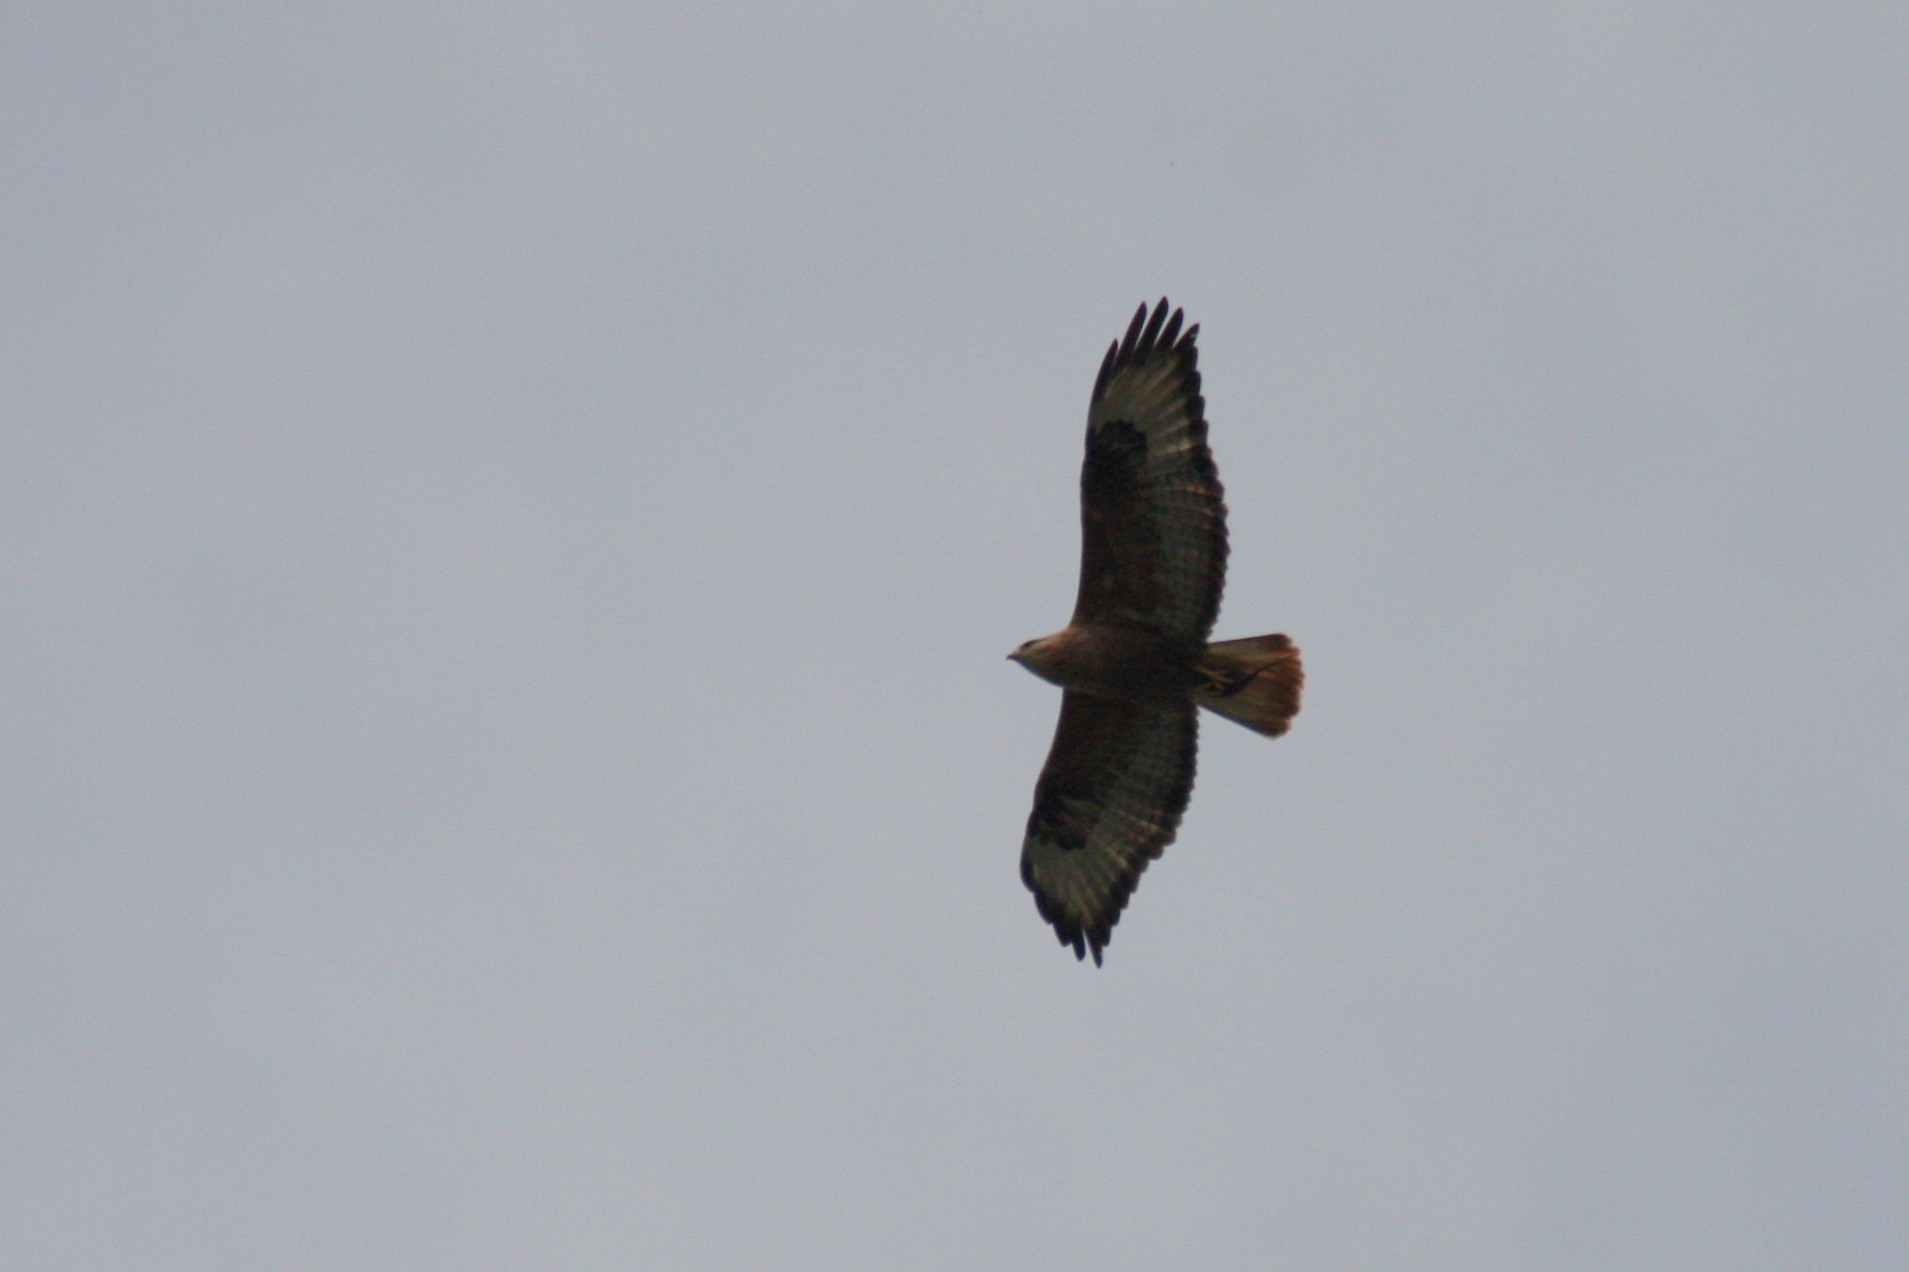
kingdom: Animalia
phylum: Chordata
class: Aves
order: Accipitriformes
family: Accipitridae
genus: Buteo
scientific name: Buteo rufinus
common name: Long-legged buzzard
